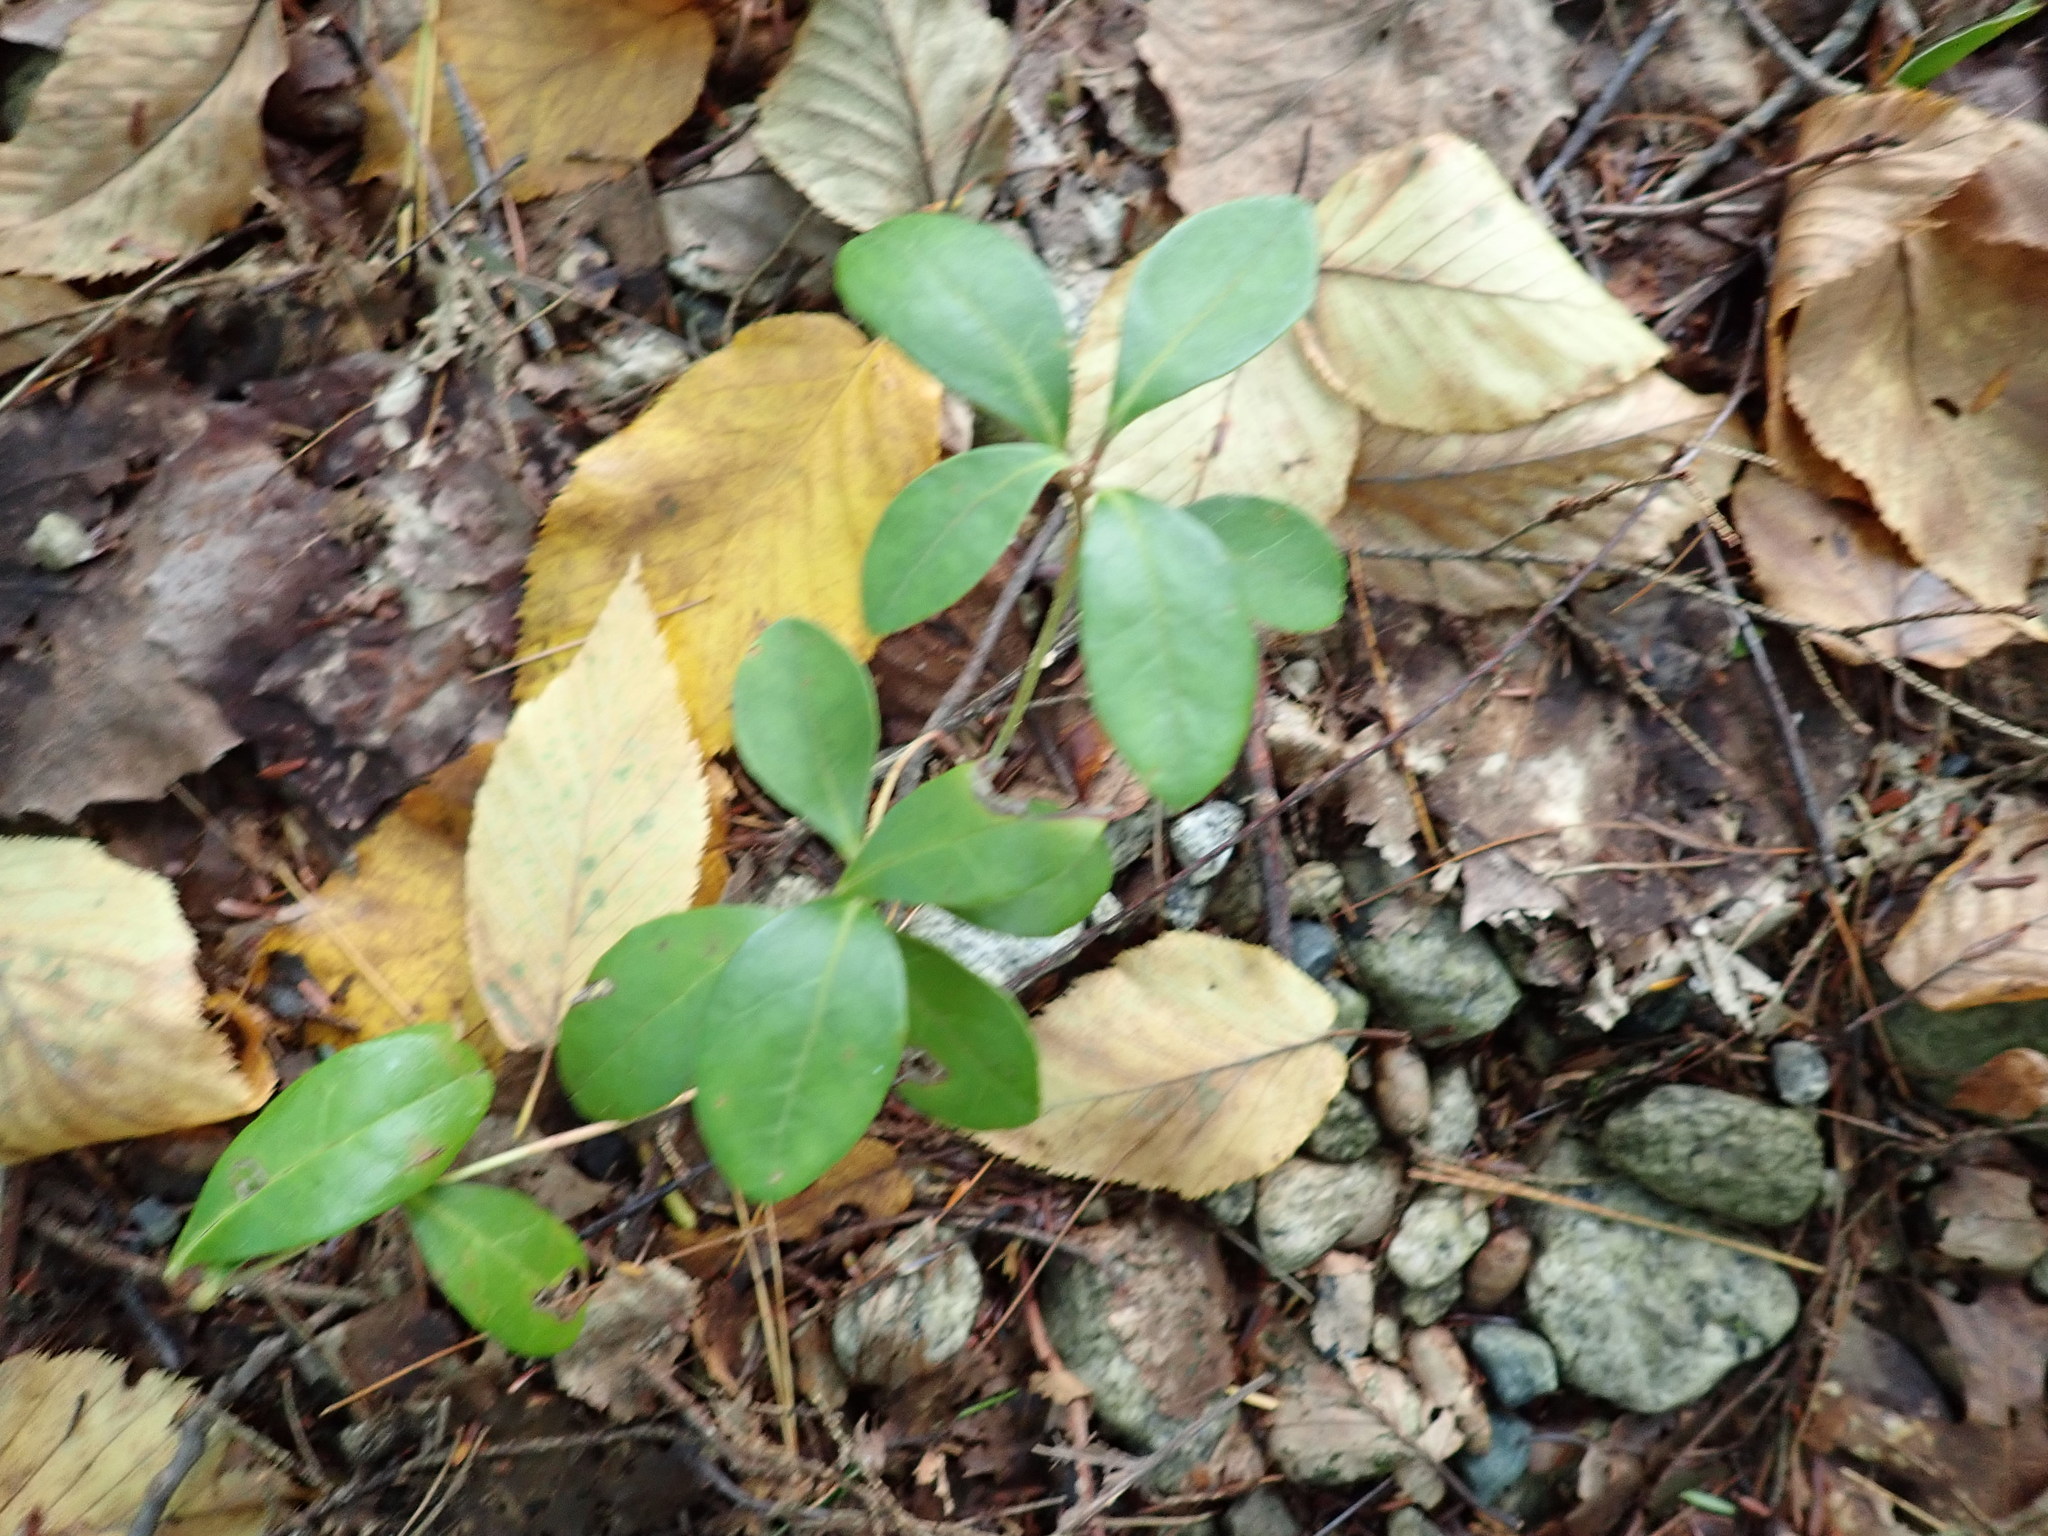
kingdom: Plantae
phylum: Tracheophyta
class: Magnoliopsida
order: Ericales
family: Ericaceae
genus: Gaultheria
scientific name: Gaultheria procumbens
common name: Checkerberry
